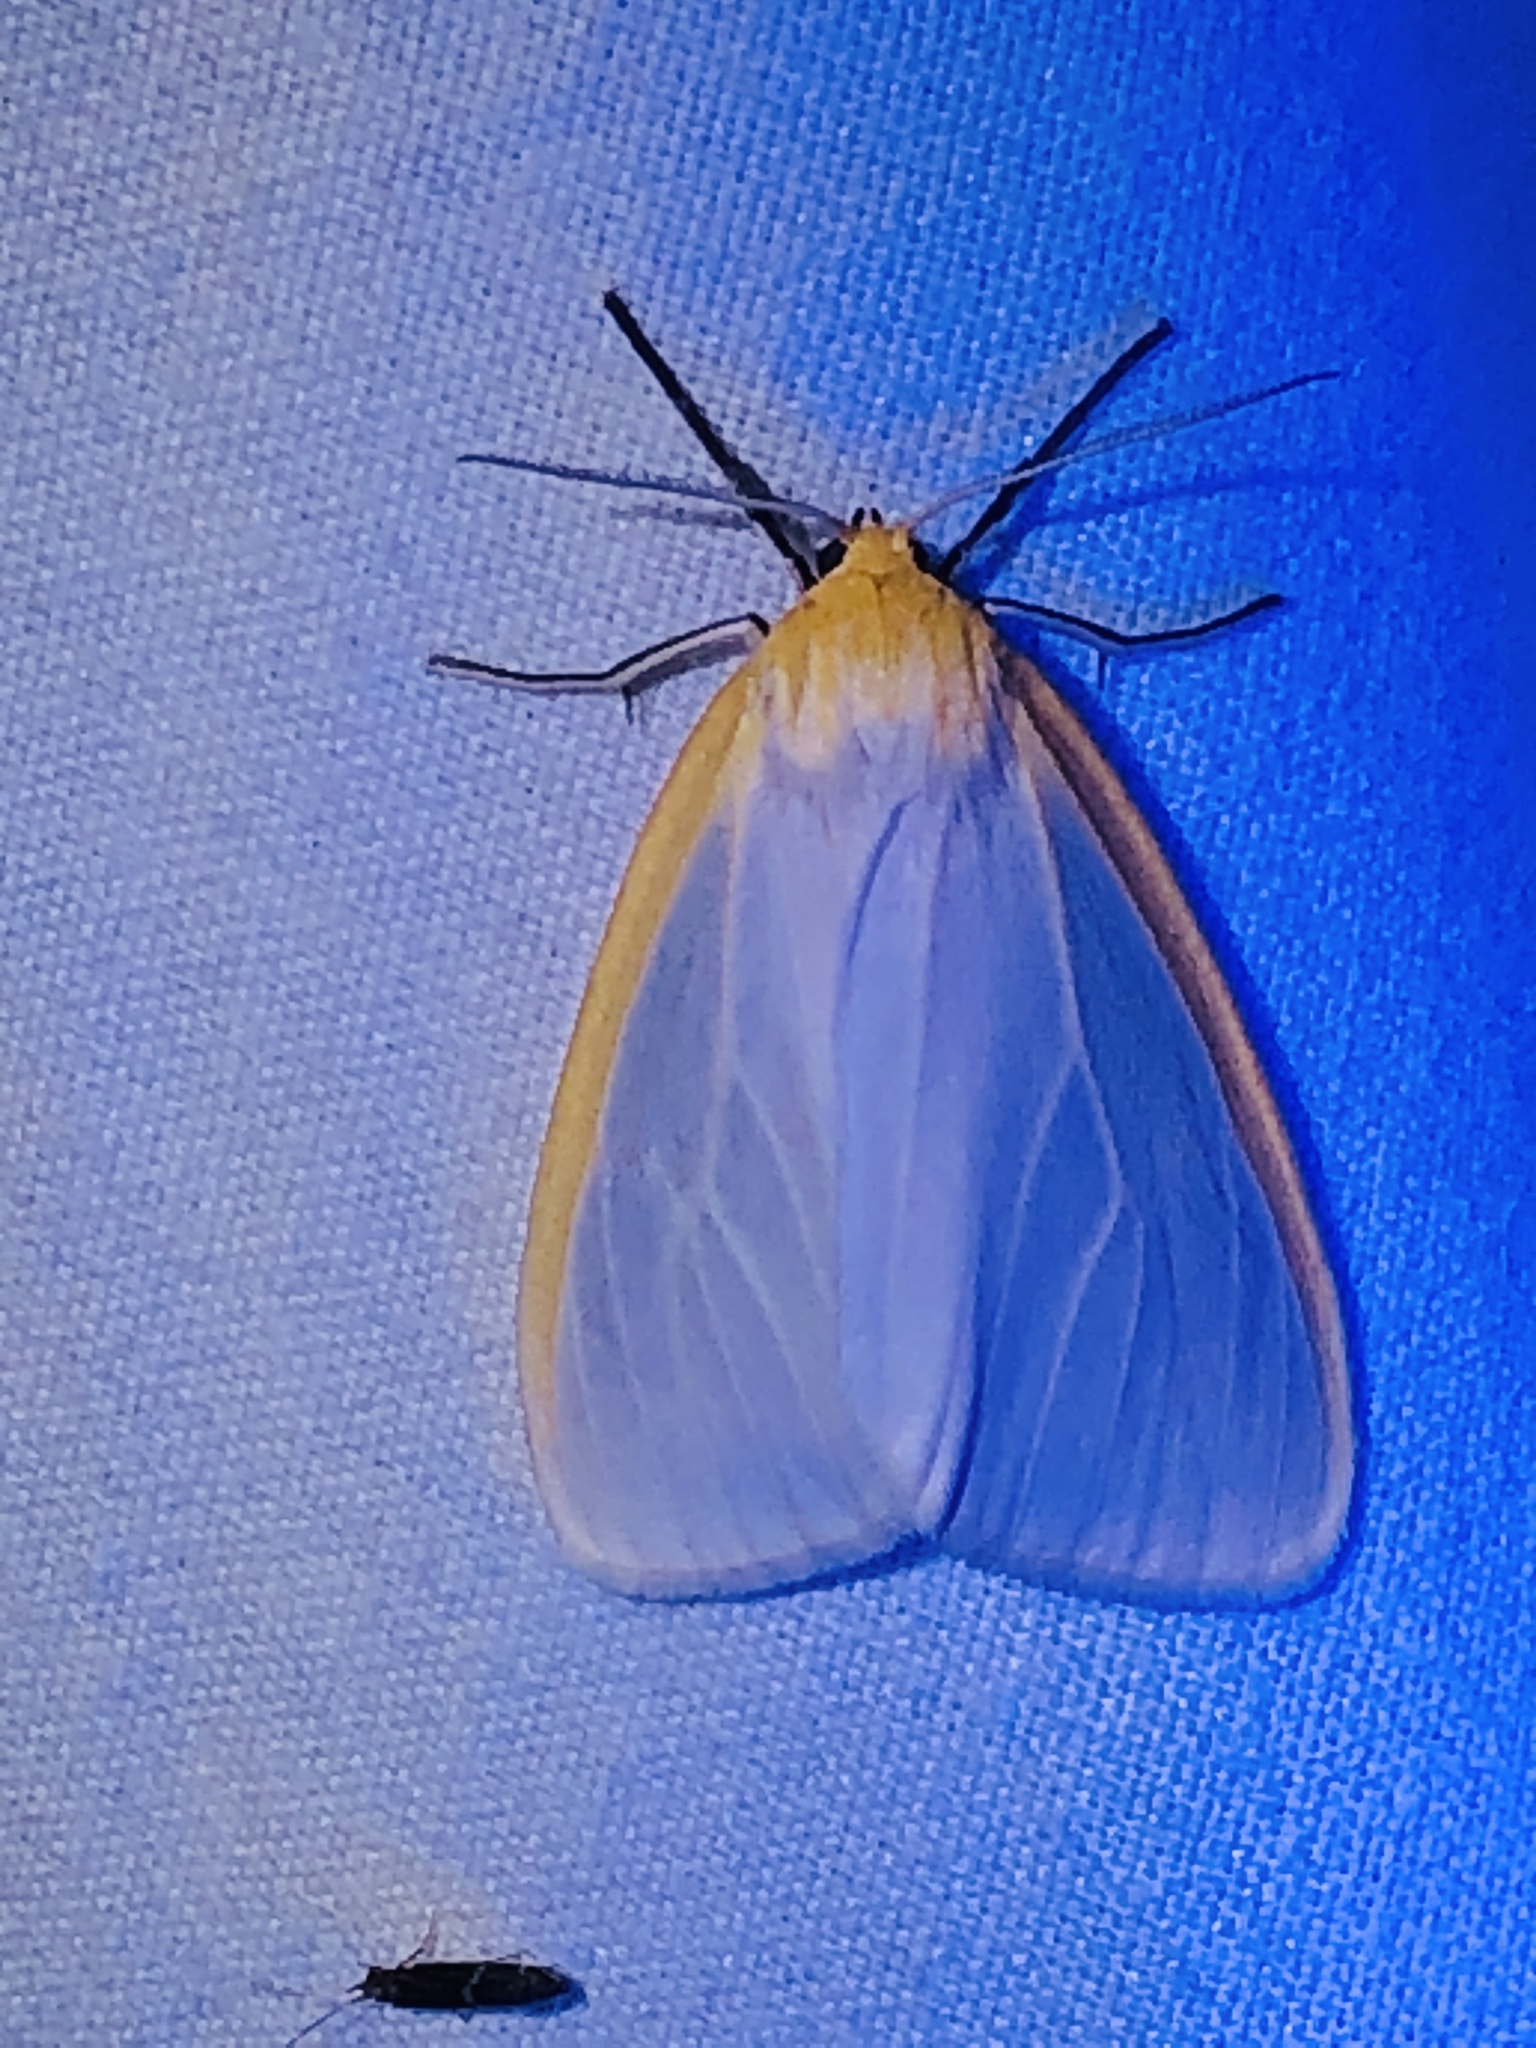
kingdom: Animalia
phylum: Arthropoda
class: Insecta
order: Lepidoptera
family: Erebidae
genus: Cycnia
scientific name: Cycnia tenera
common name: Delicate cycnia moth
